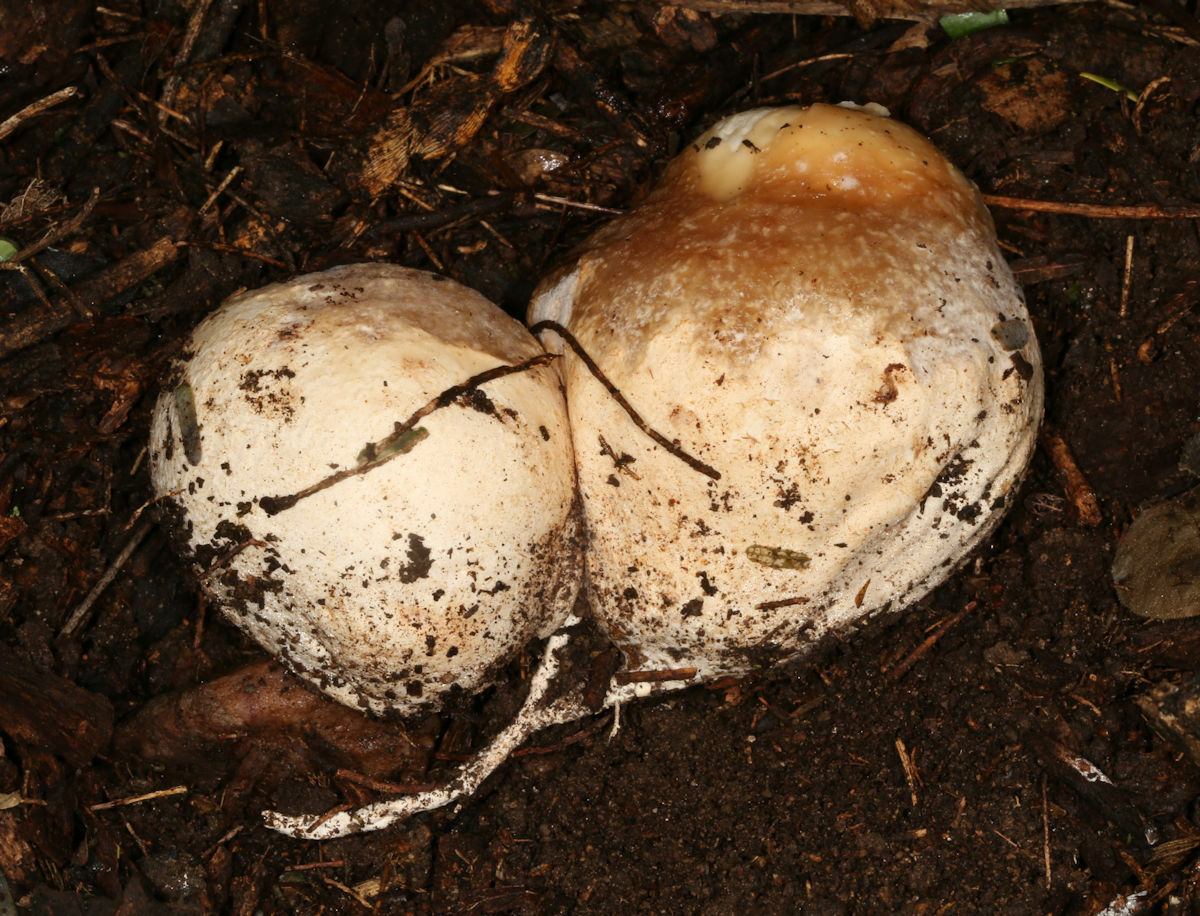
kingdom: Fungi
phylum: Basidiomycota
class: Agaricomycetes
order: Phallales
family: Phallaceae
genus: Itajahya
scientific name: Itajahya galericulata
